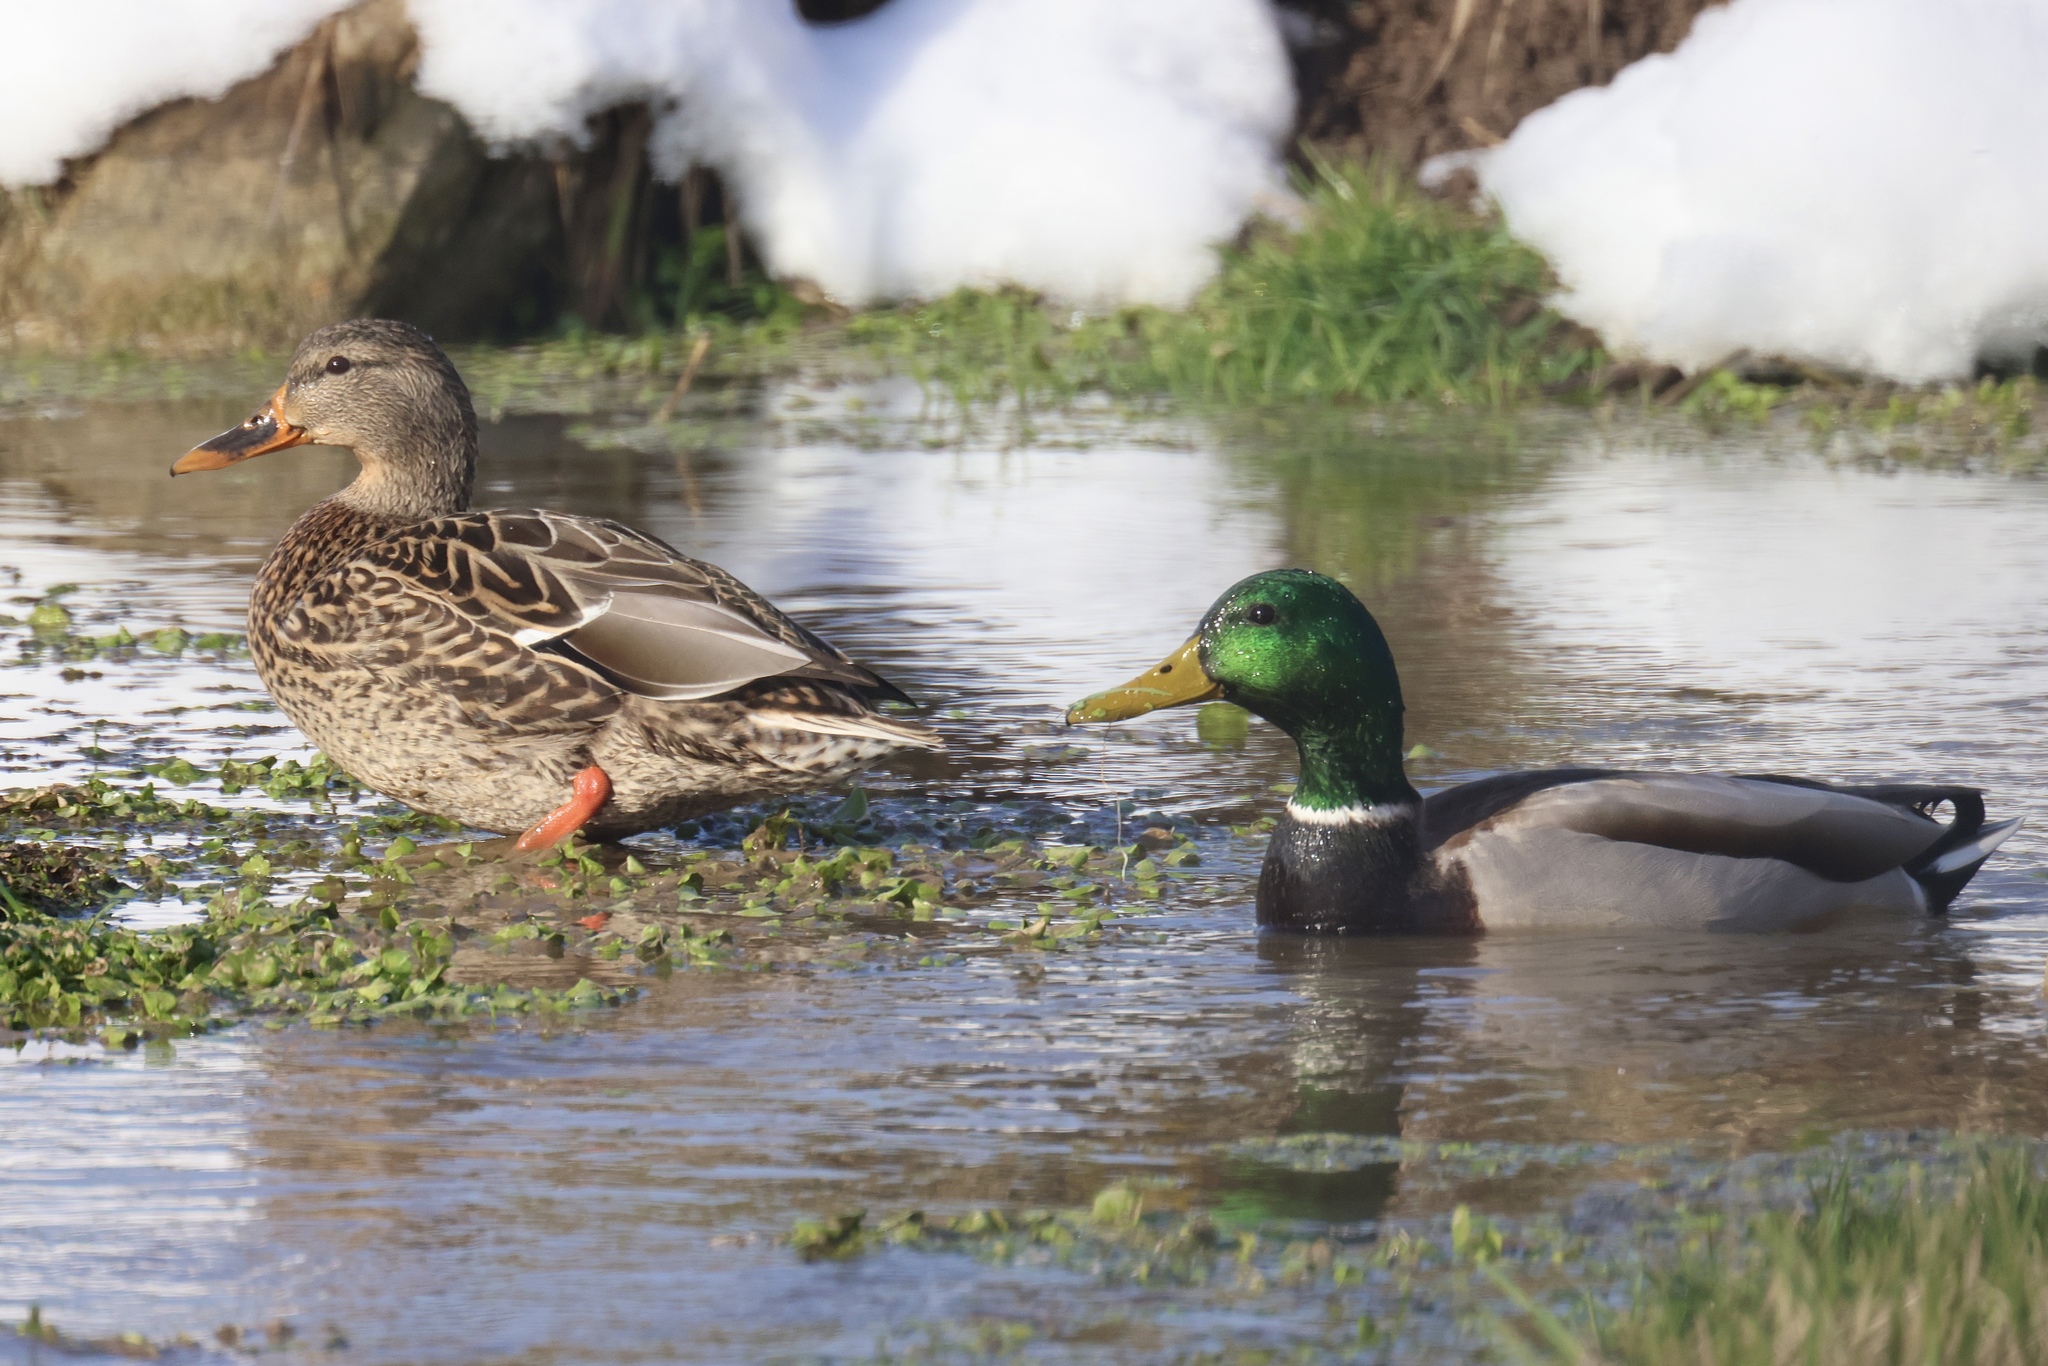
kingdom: Animalia
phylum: Chordata
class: Aves
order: Anseriformes
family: Anatidae
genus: Anas
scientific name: Anas platyrhynchos
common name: Mallard
